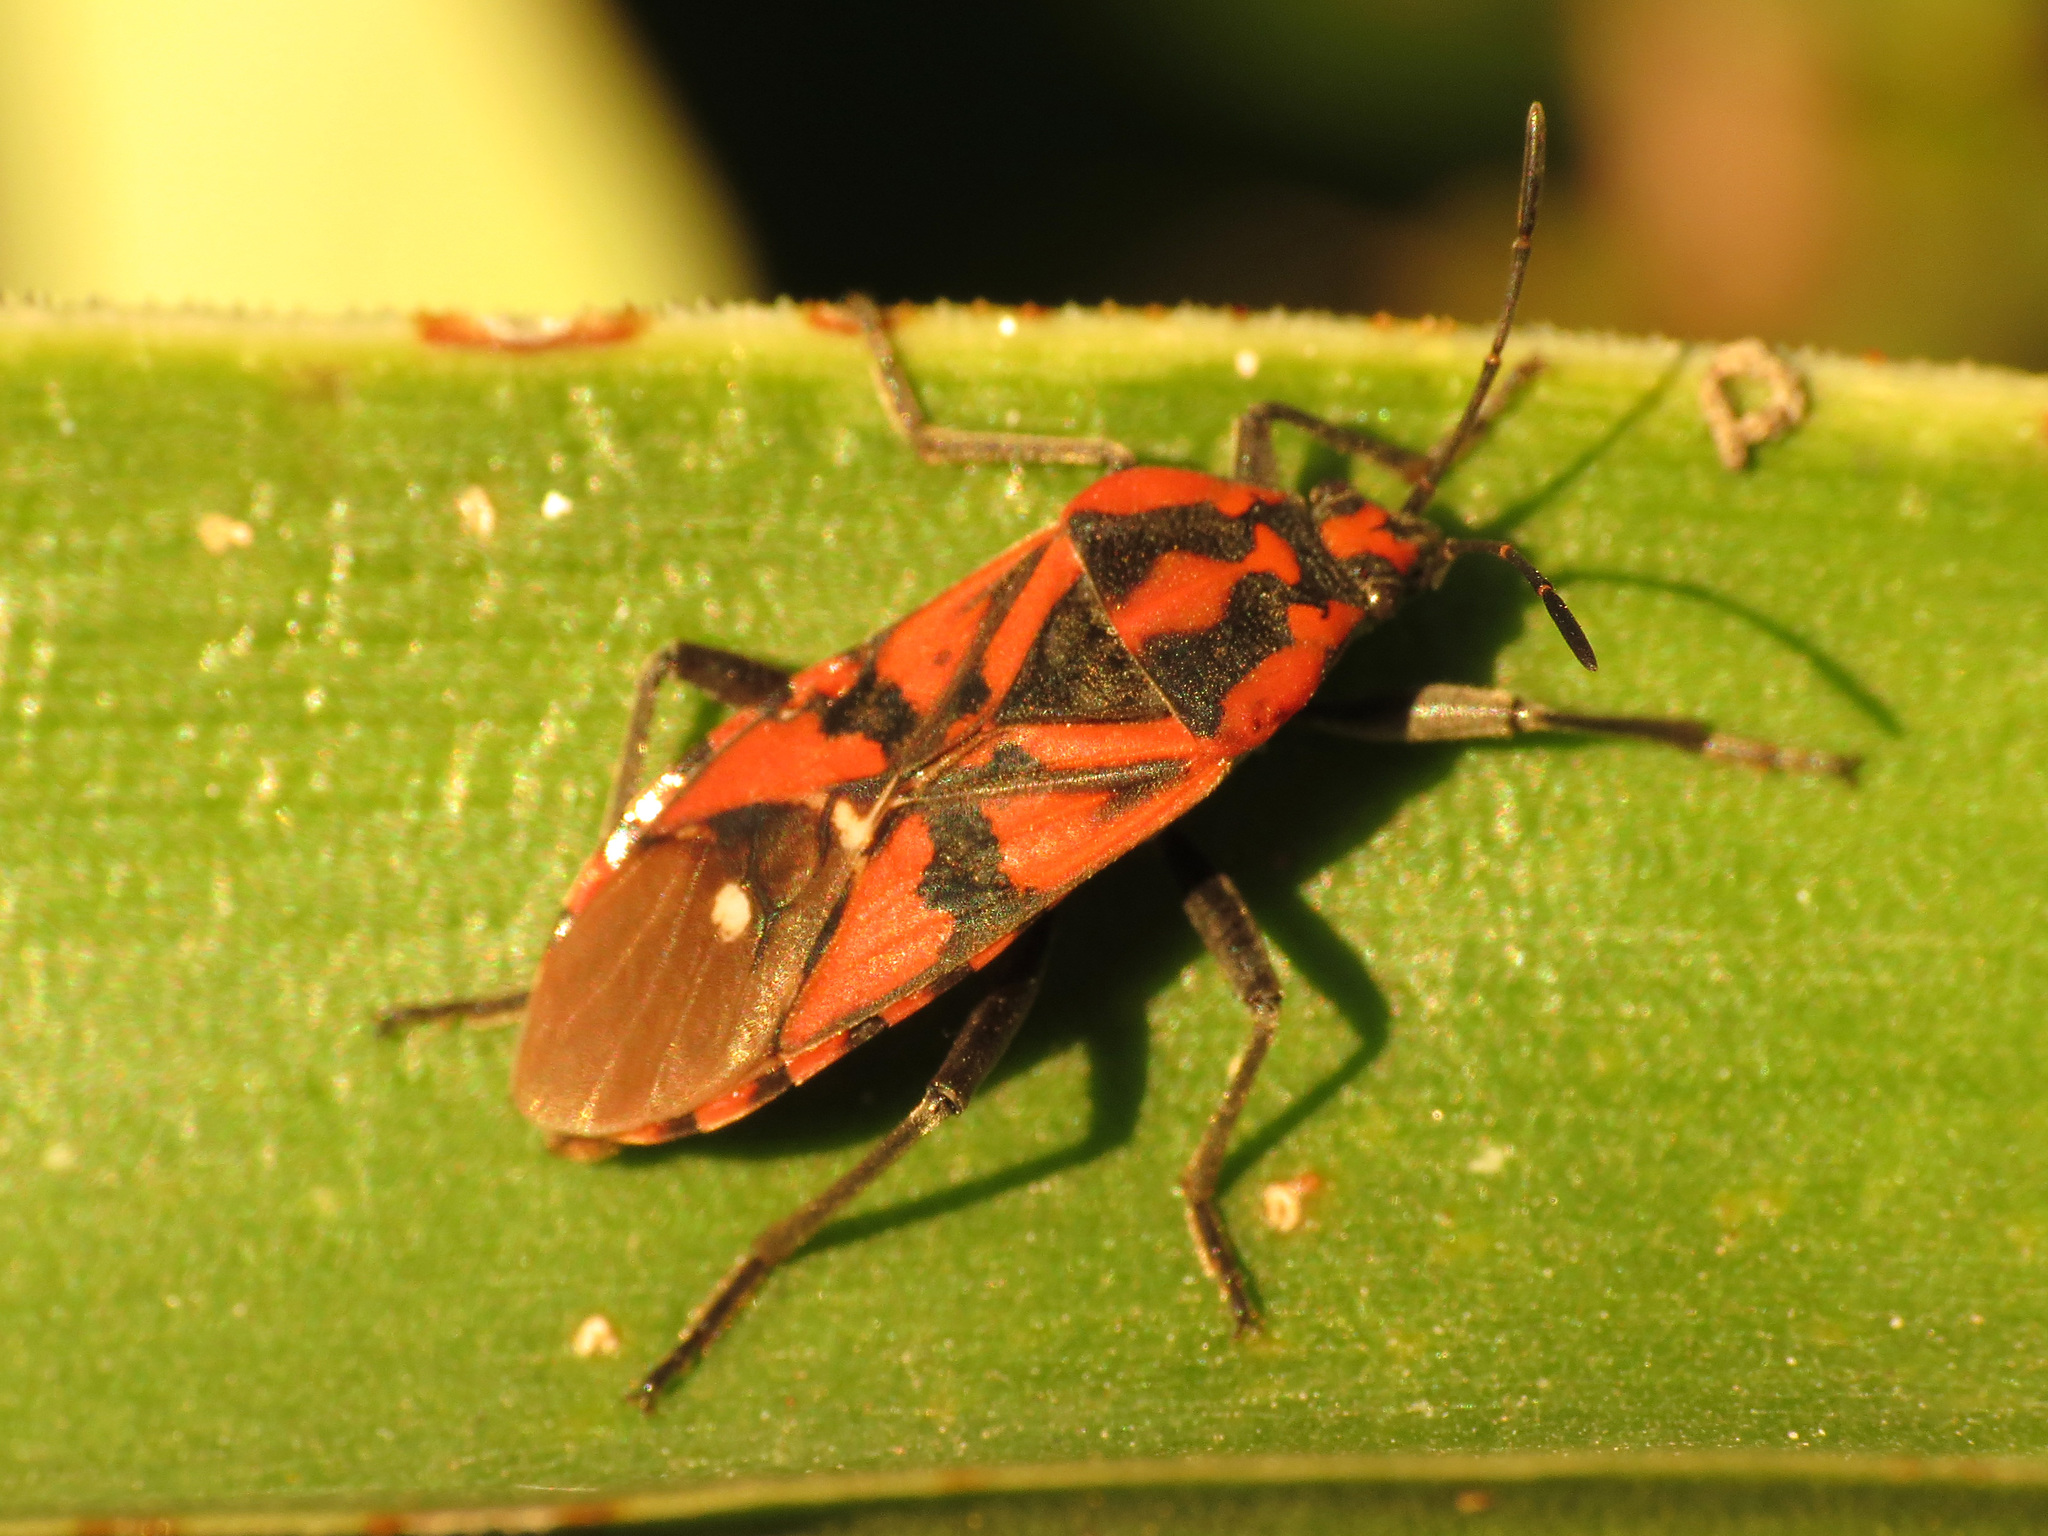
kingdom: Animalia
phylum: Arthropoda
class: Insecta
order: Hemiptera
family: Lygaeidae
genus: Spilostethus
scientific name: Spilostethus pandurus
